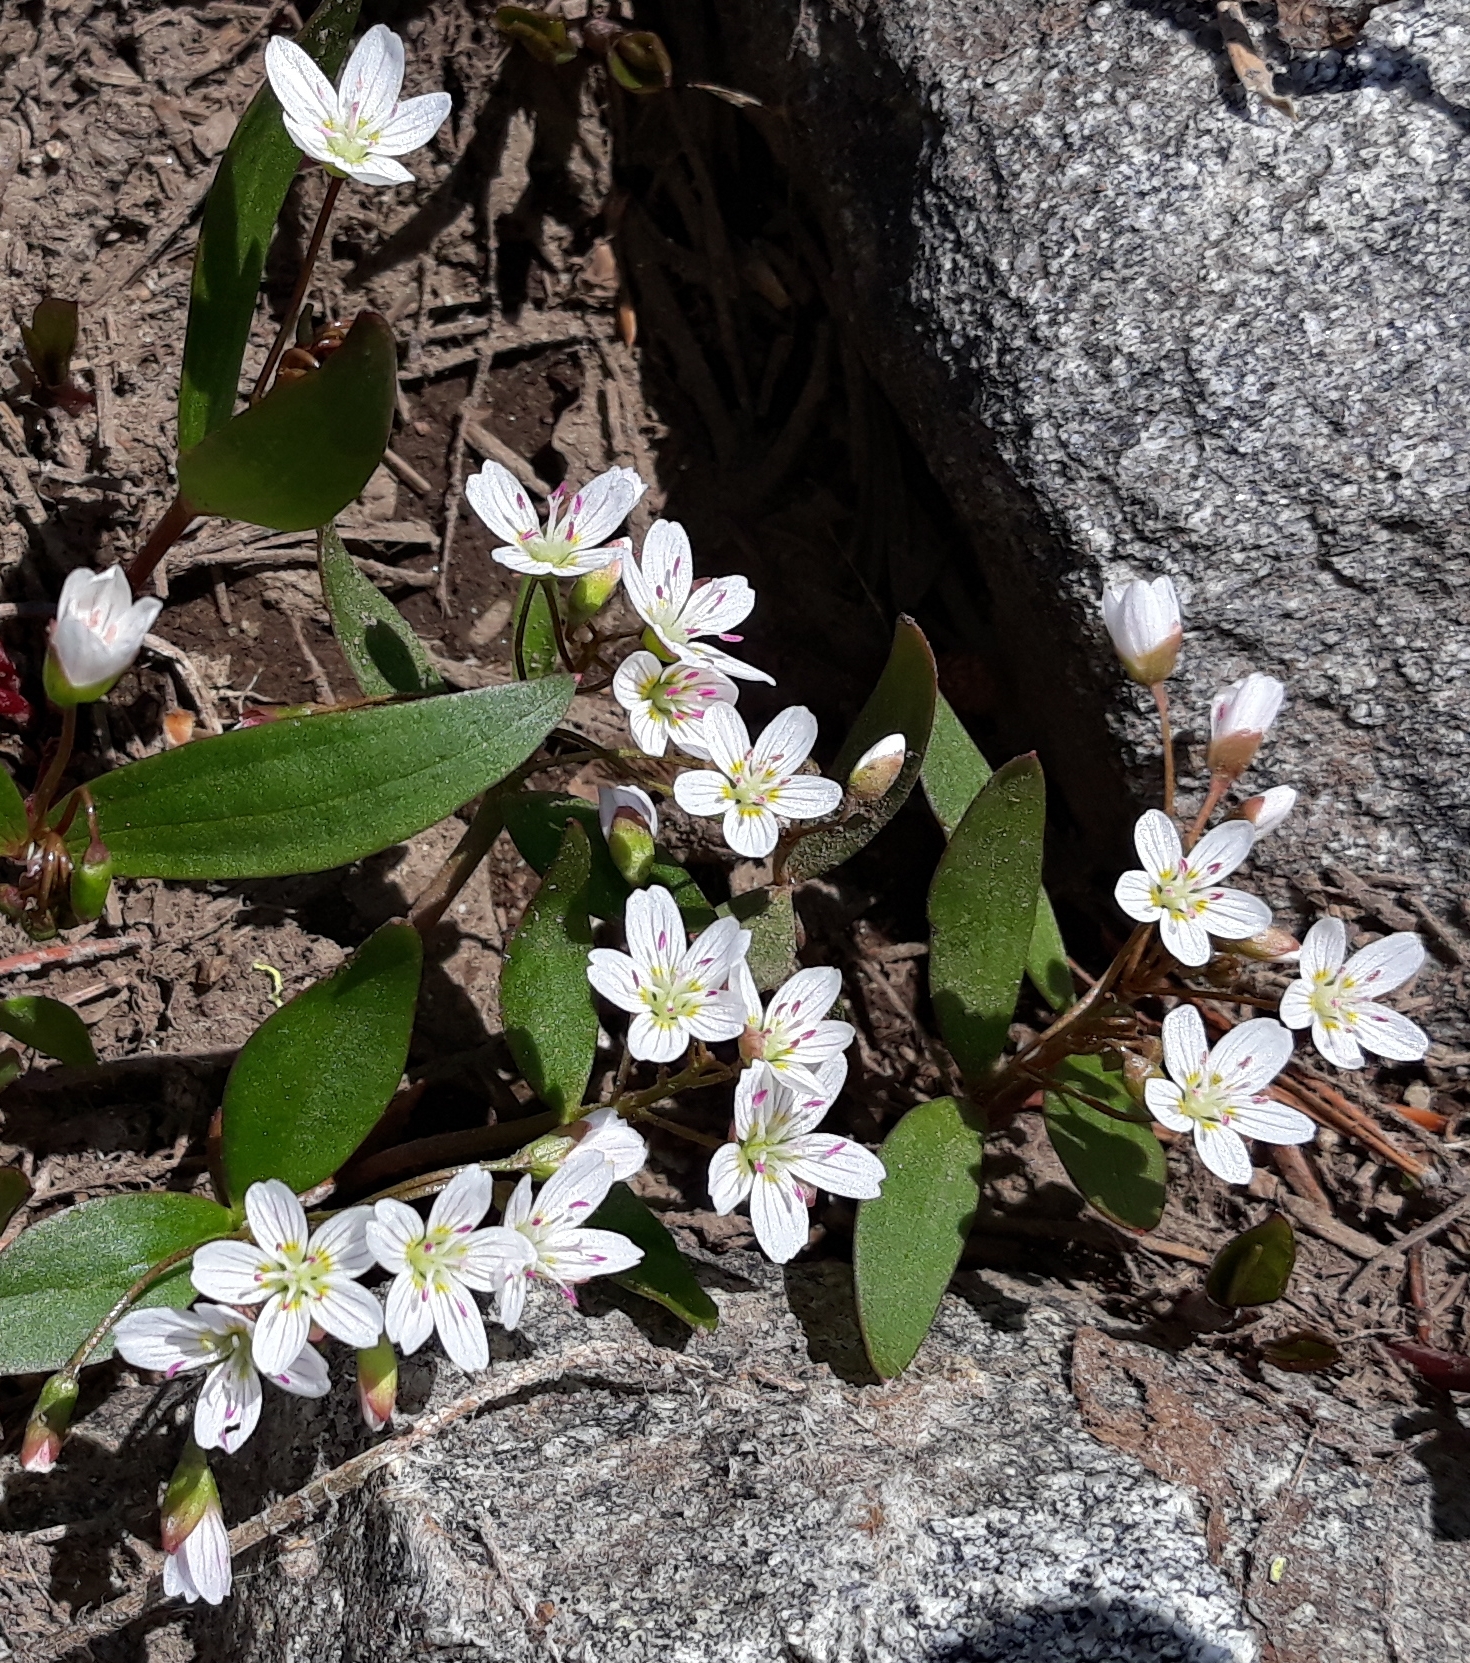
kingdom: Plantae
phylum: Tracheophyta
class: Magnoliopsida
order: Caryophyllales
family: Montiaceae
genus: Claytonia
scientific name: Claytonia lanceolata
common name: Western spring-beauty
